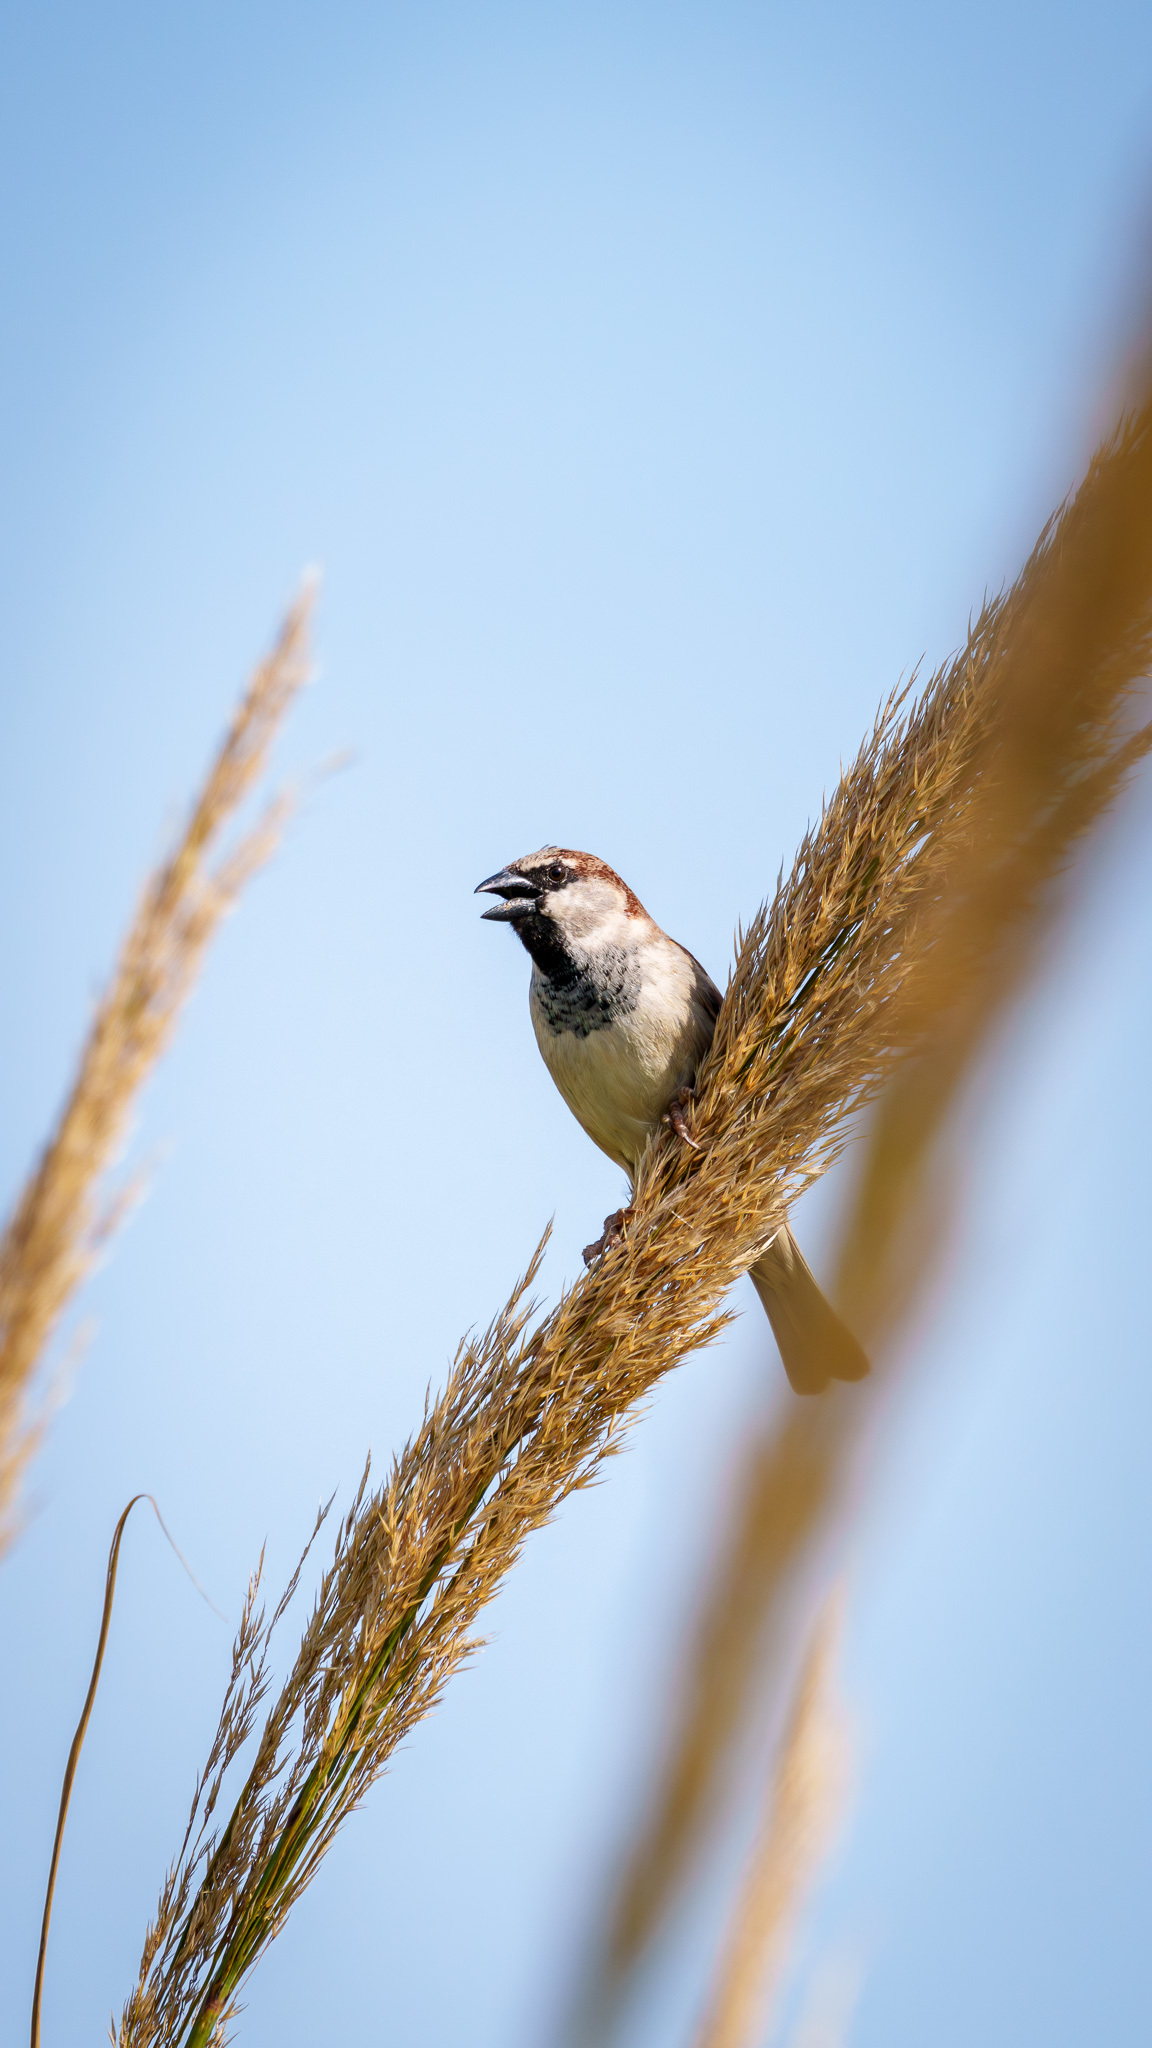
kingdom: Animalia
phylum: Chordata
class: Aves
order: Passeriformes
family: Passeridae
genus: Passer
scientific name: Passer domesticus
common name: House sparrow
